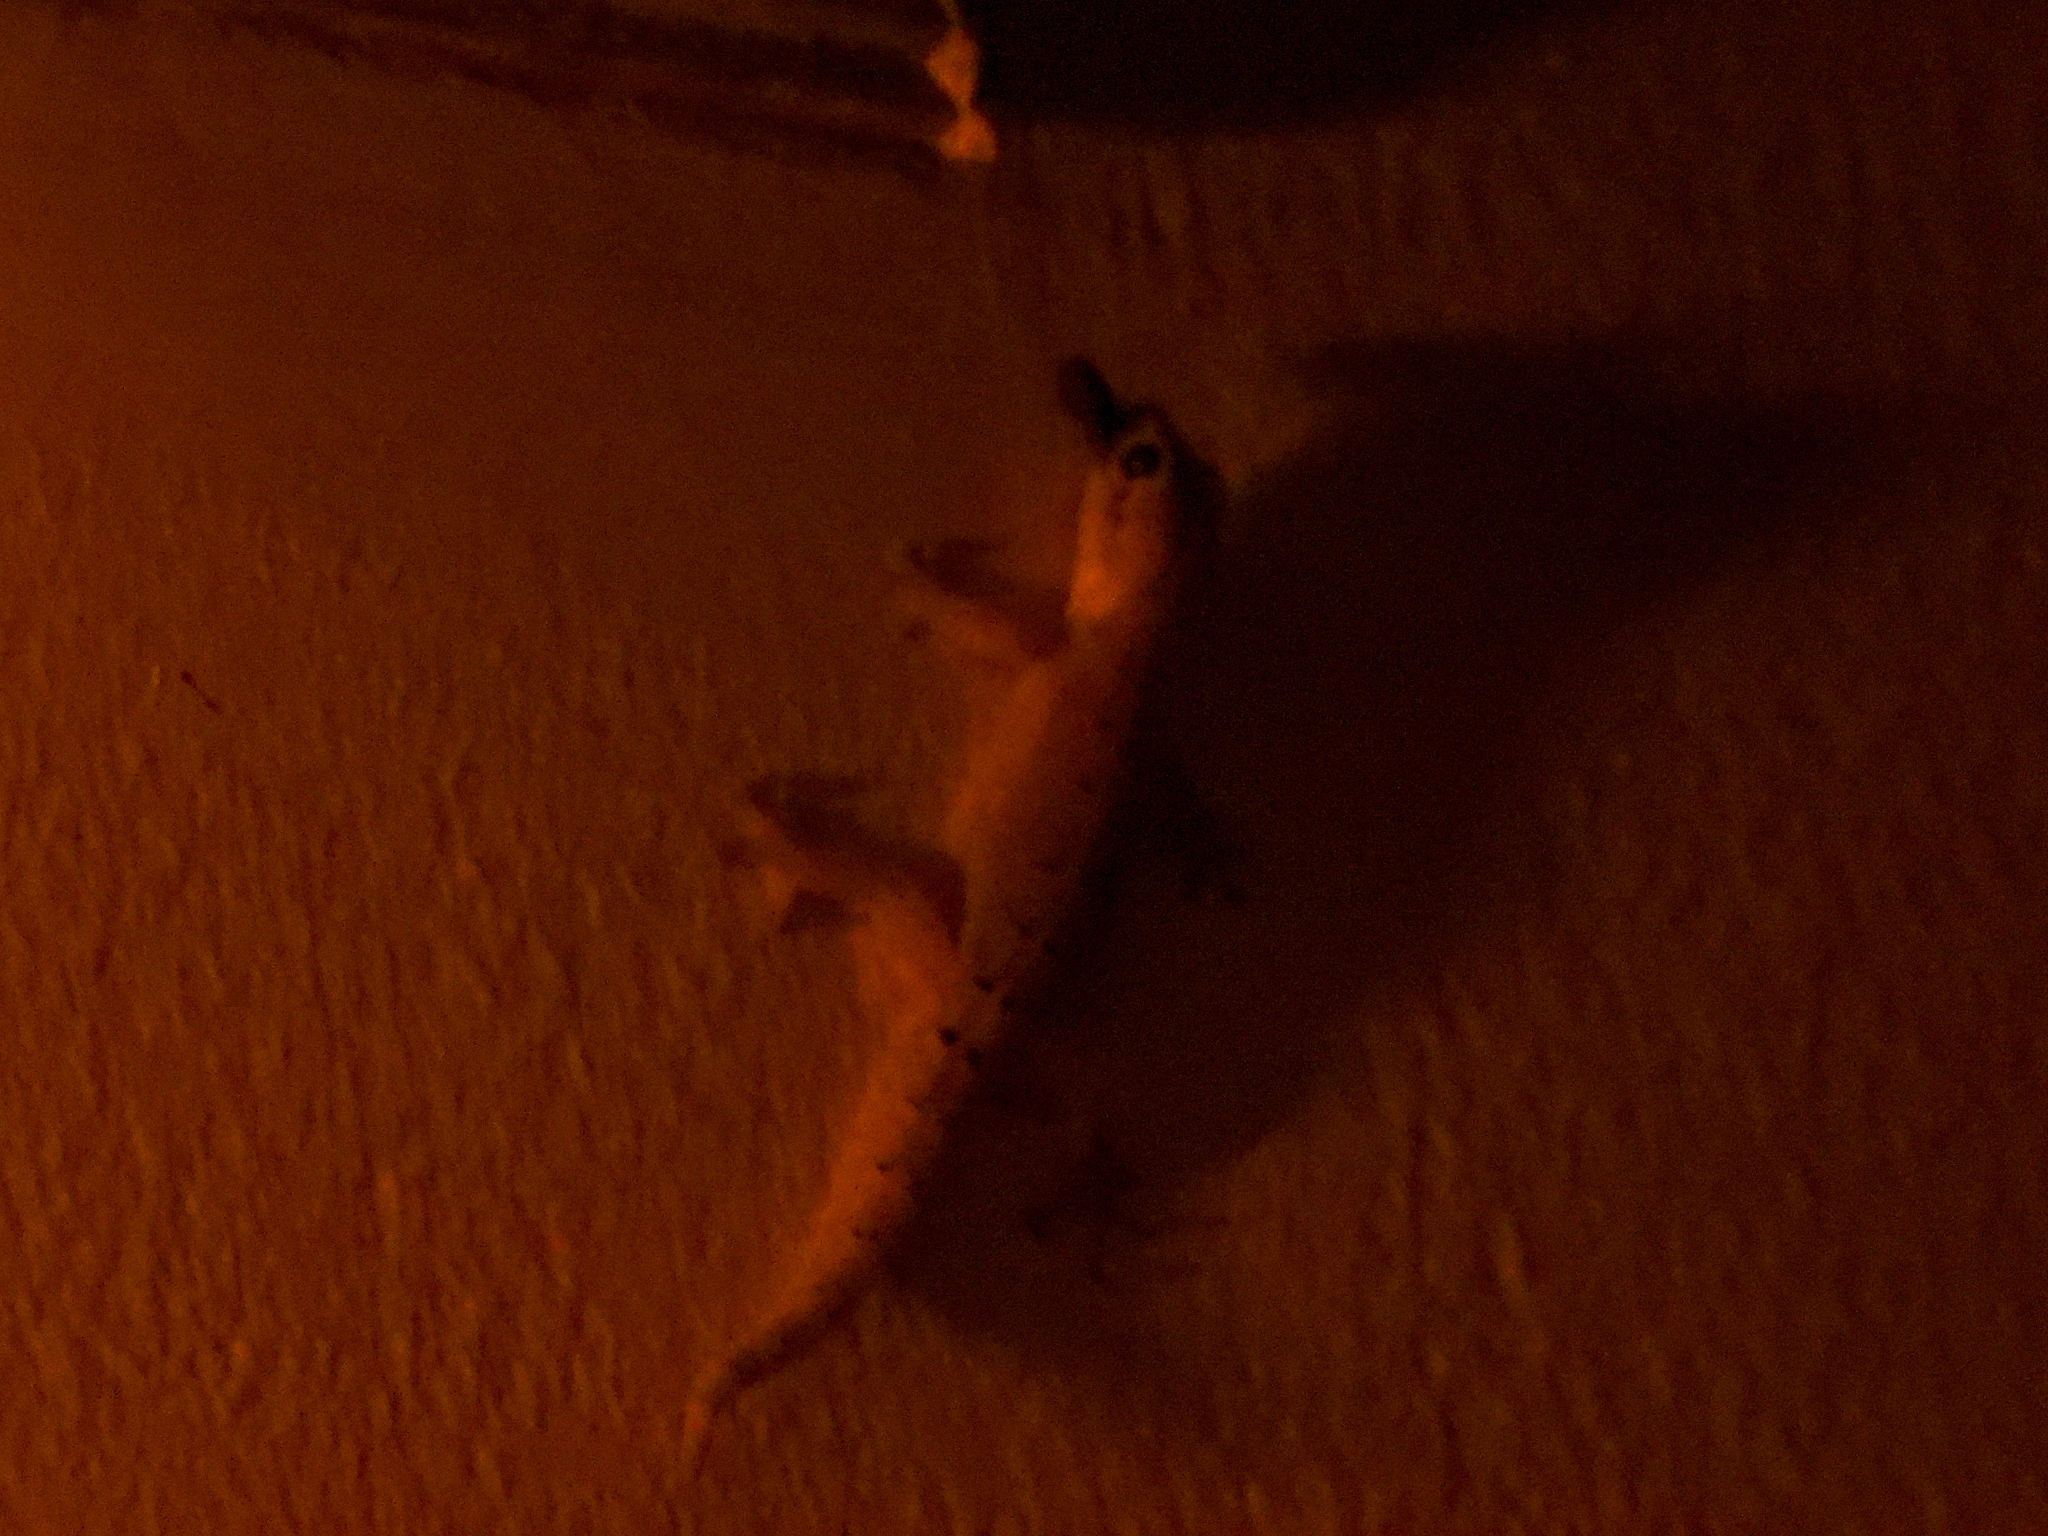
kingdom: Animalia
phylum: Chordata
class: Squamata
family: Gekkonidae
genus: Lepidodactylus
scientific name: Lepidodactylus lugubris
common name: Mourning gecko
